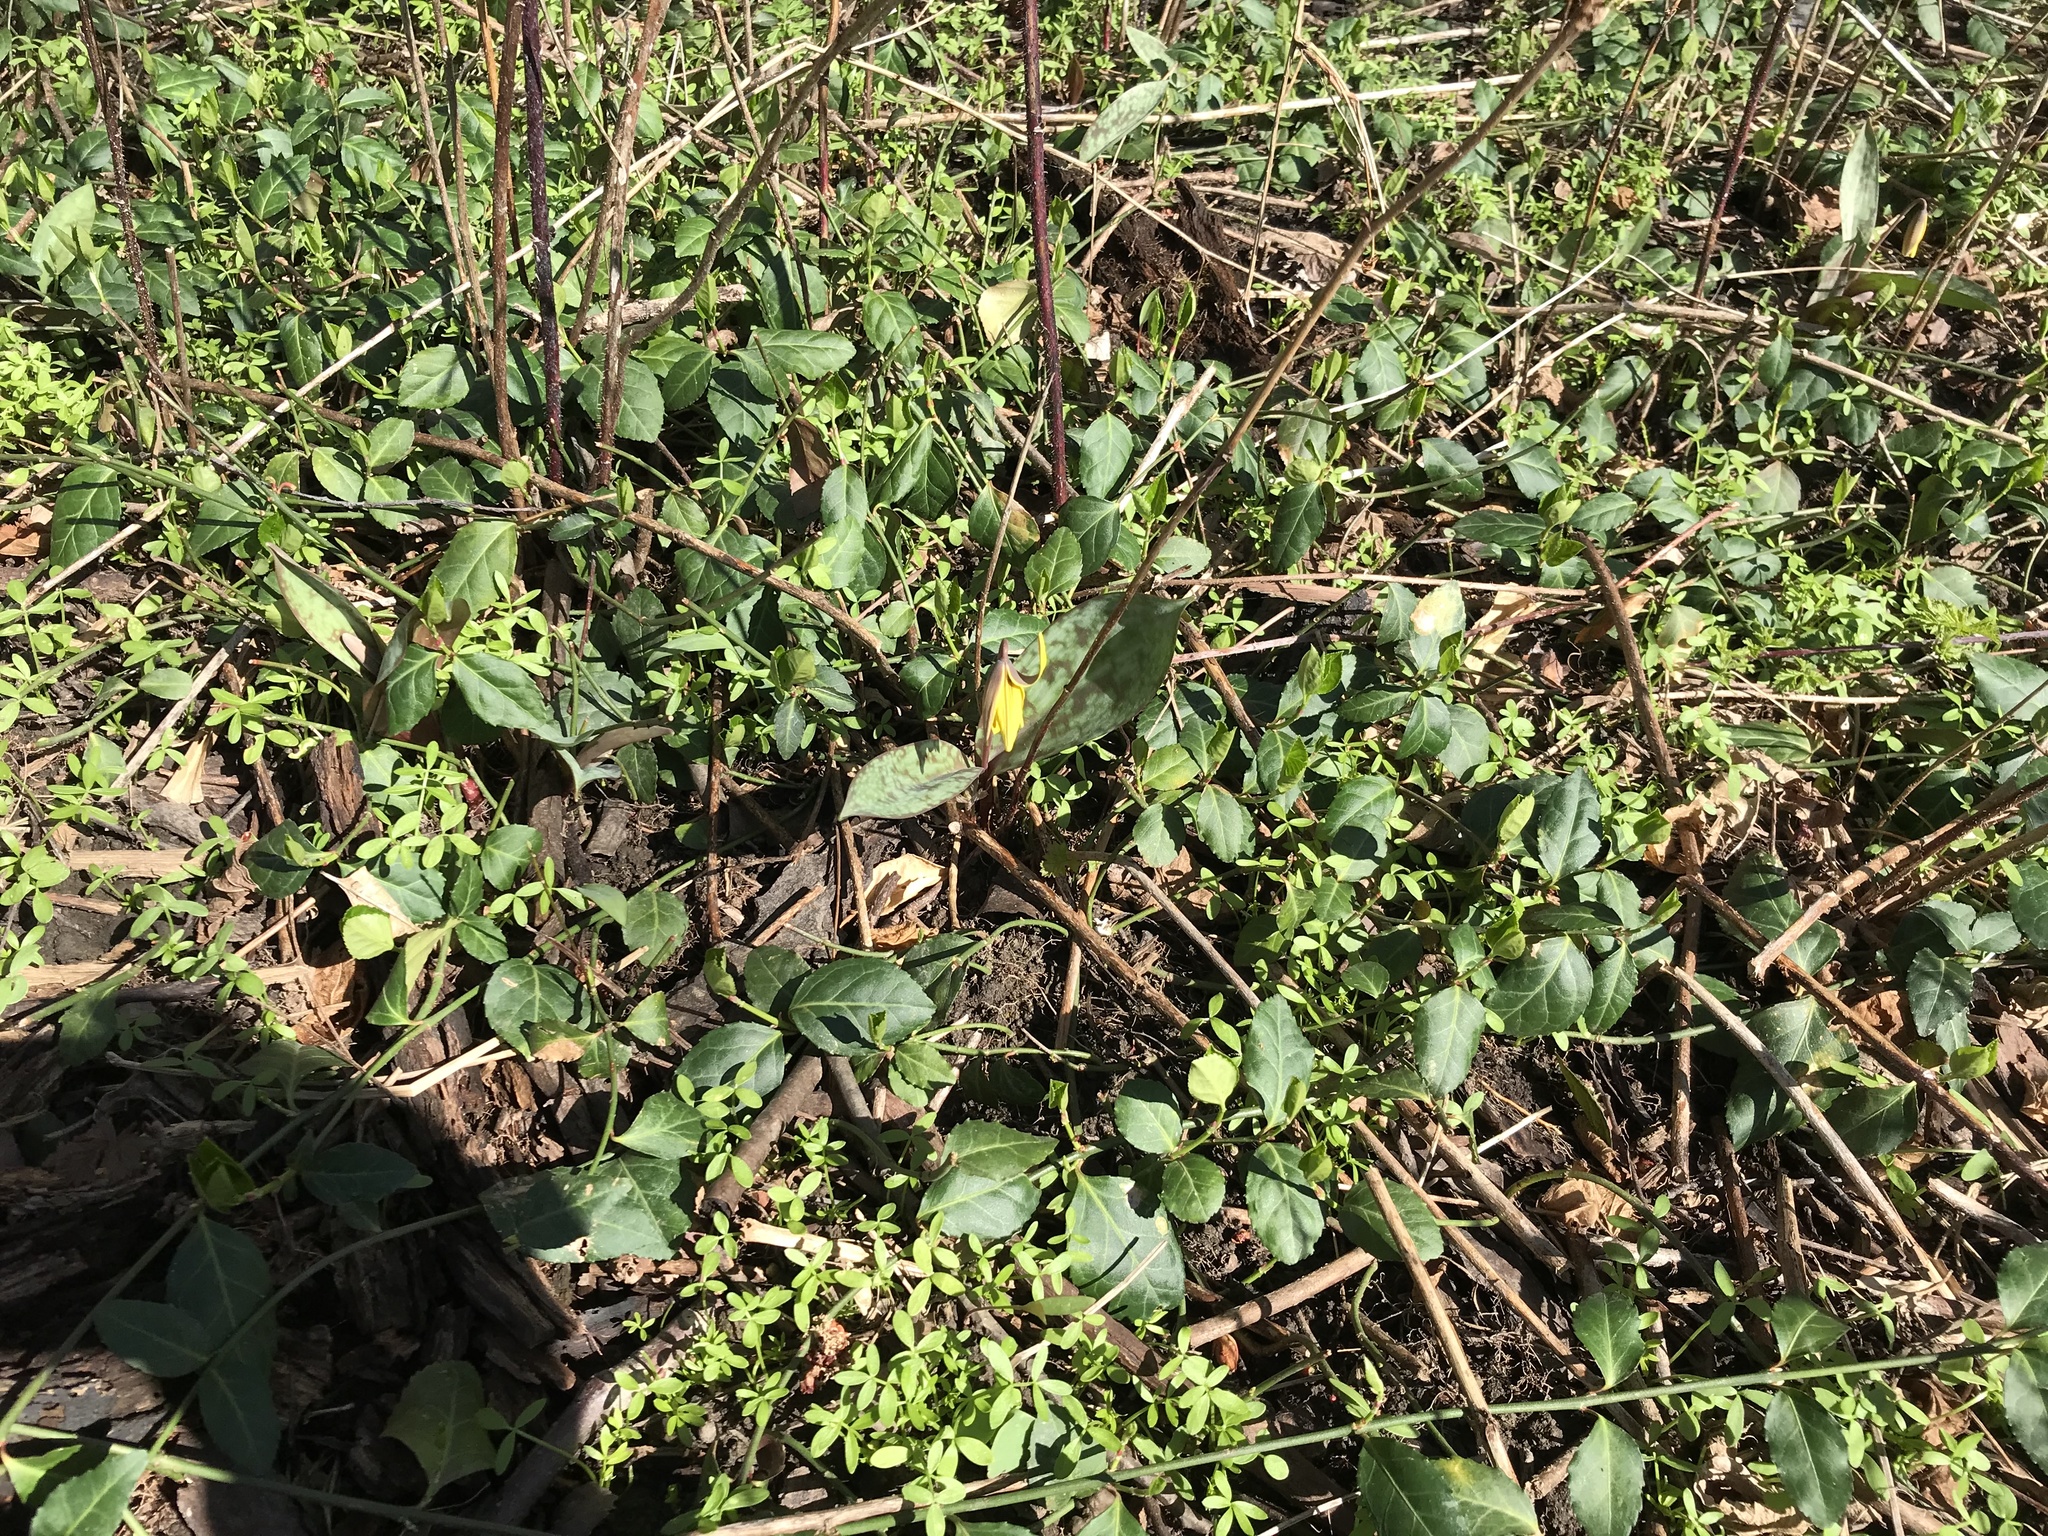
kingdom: Plantae
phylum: Tracheophyta
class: Liliopsida
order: Liliales
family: Liliaceae
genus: Erythronium
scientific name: Erythronium americanum
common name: Yellow adder's-tongue
